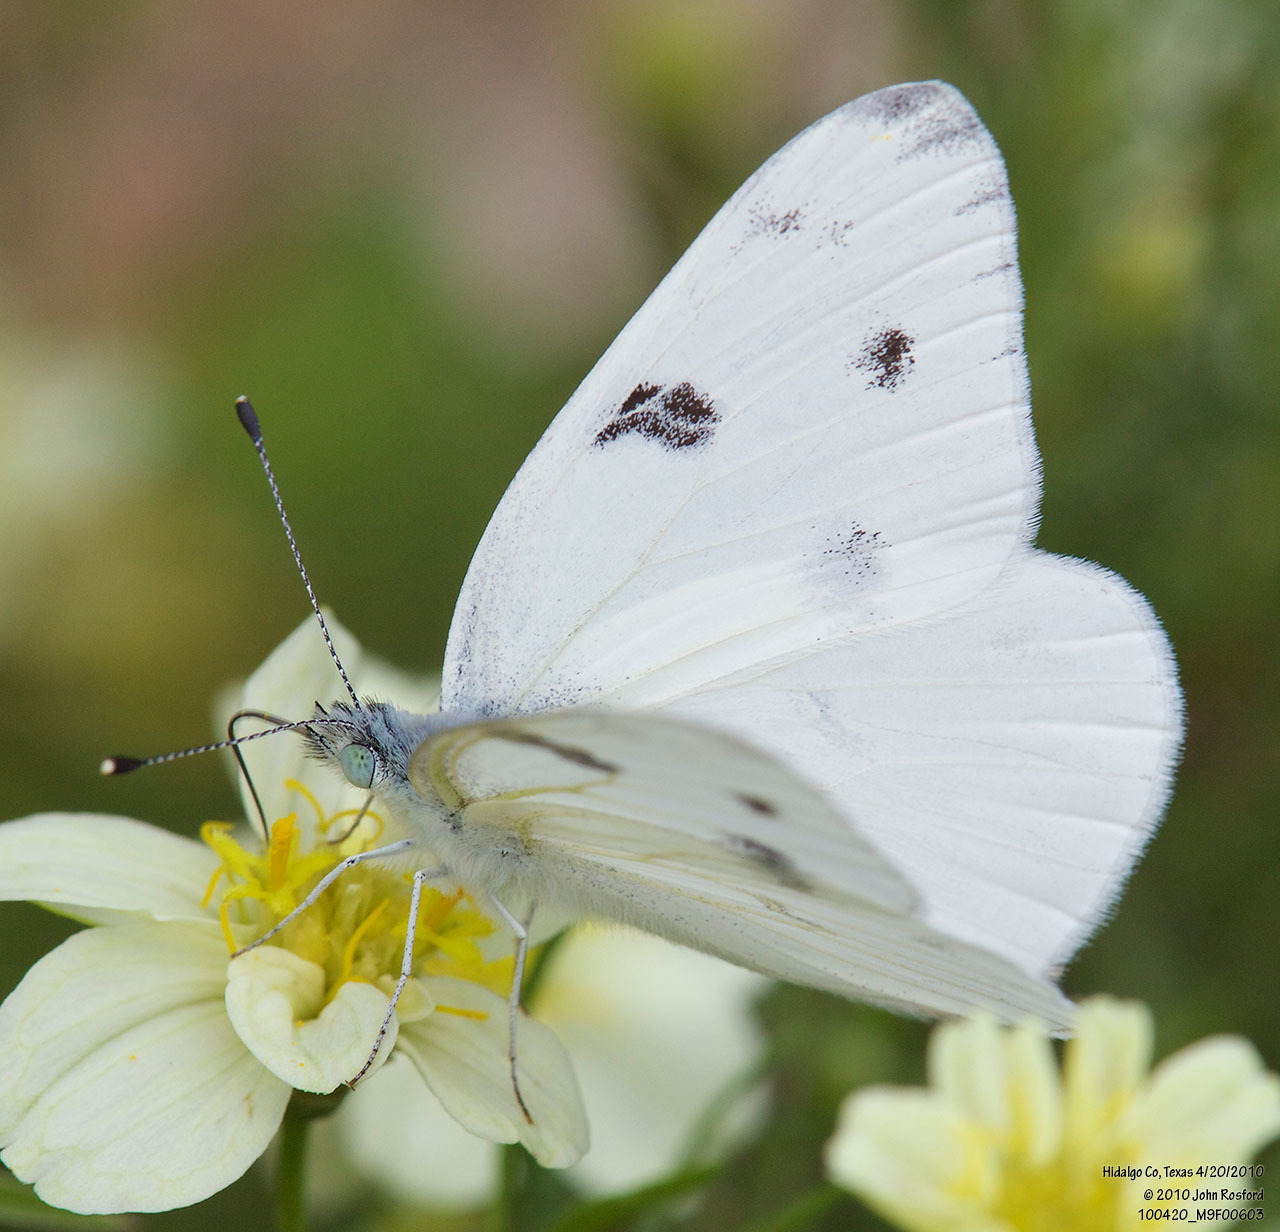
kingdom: Animalia
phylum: Arthropoda
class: Insecta
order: Lepidoptera
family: Pieridae
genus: Pontia
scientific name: Pontia protodice
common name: Checkered white
